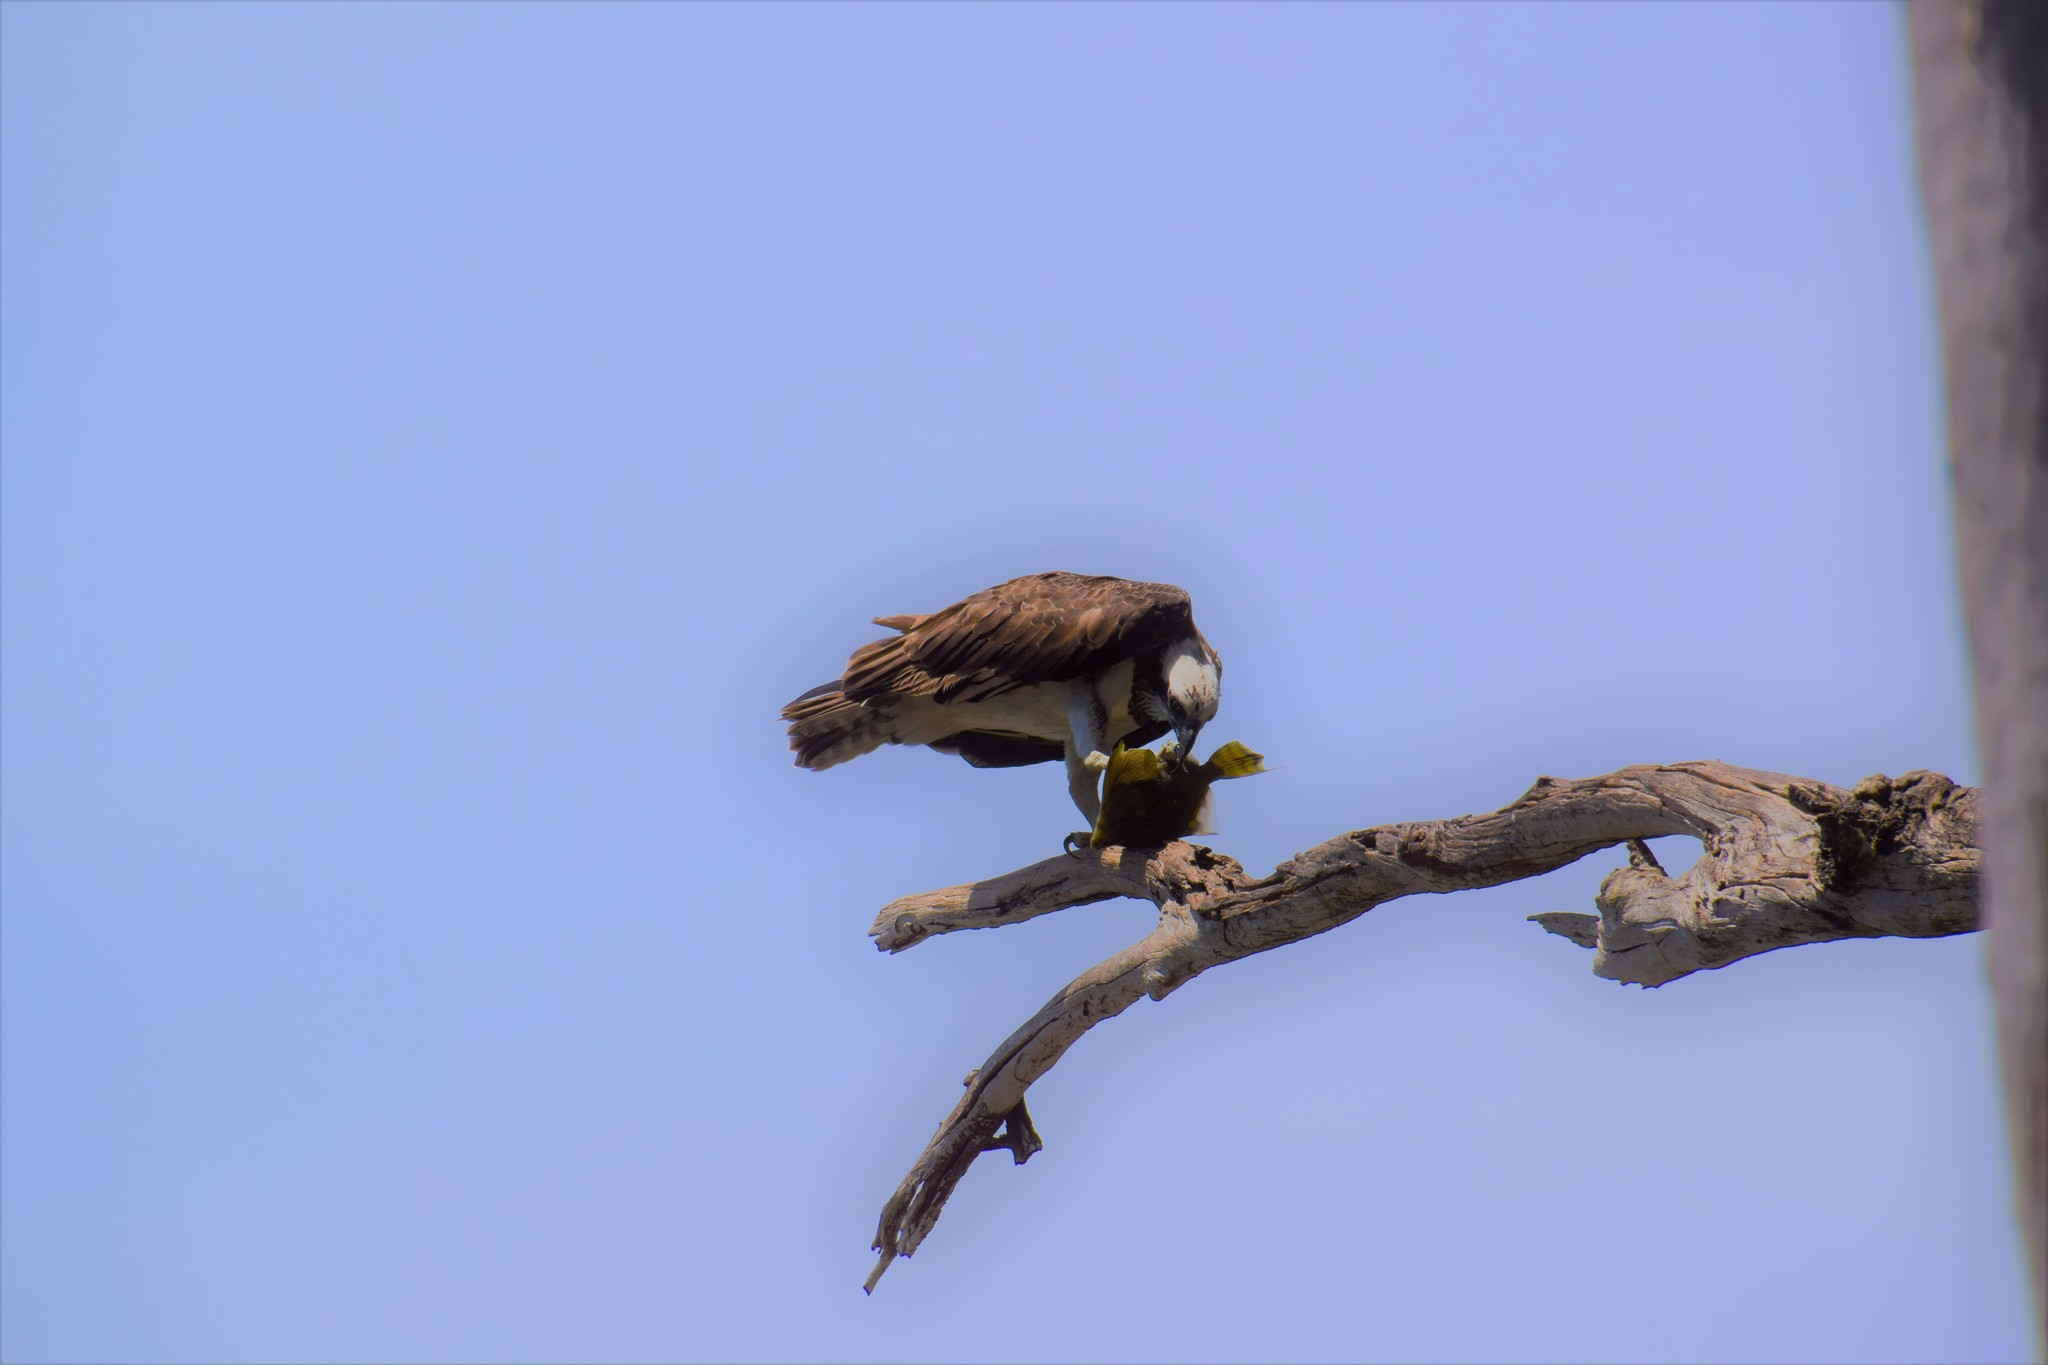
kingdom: Animalia
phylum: Chordata
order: Tetraodontiformes
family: Monacanthidae
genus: Monacanthus
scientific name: Monacanthus chinensis
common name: Centreboard leatherjacket
